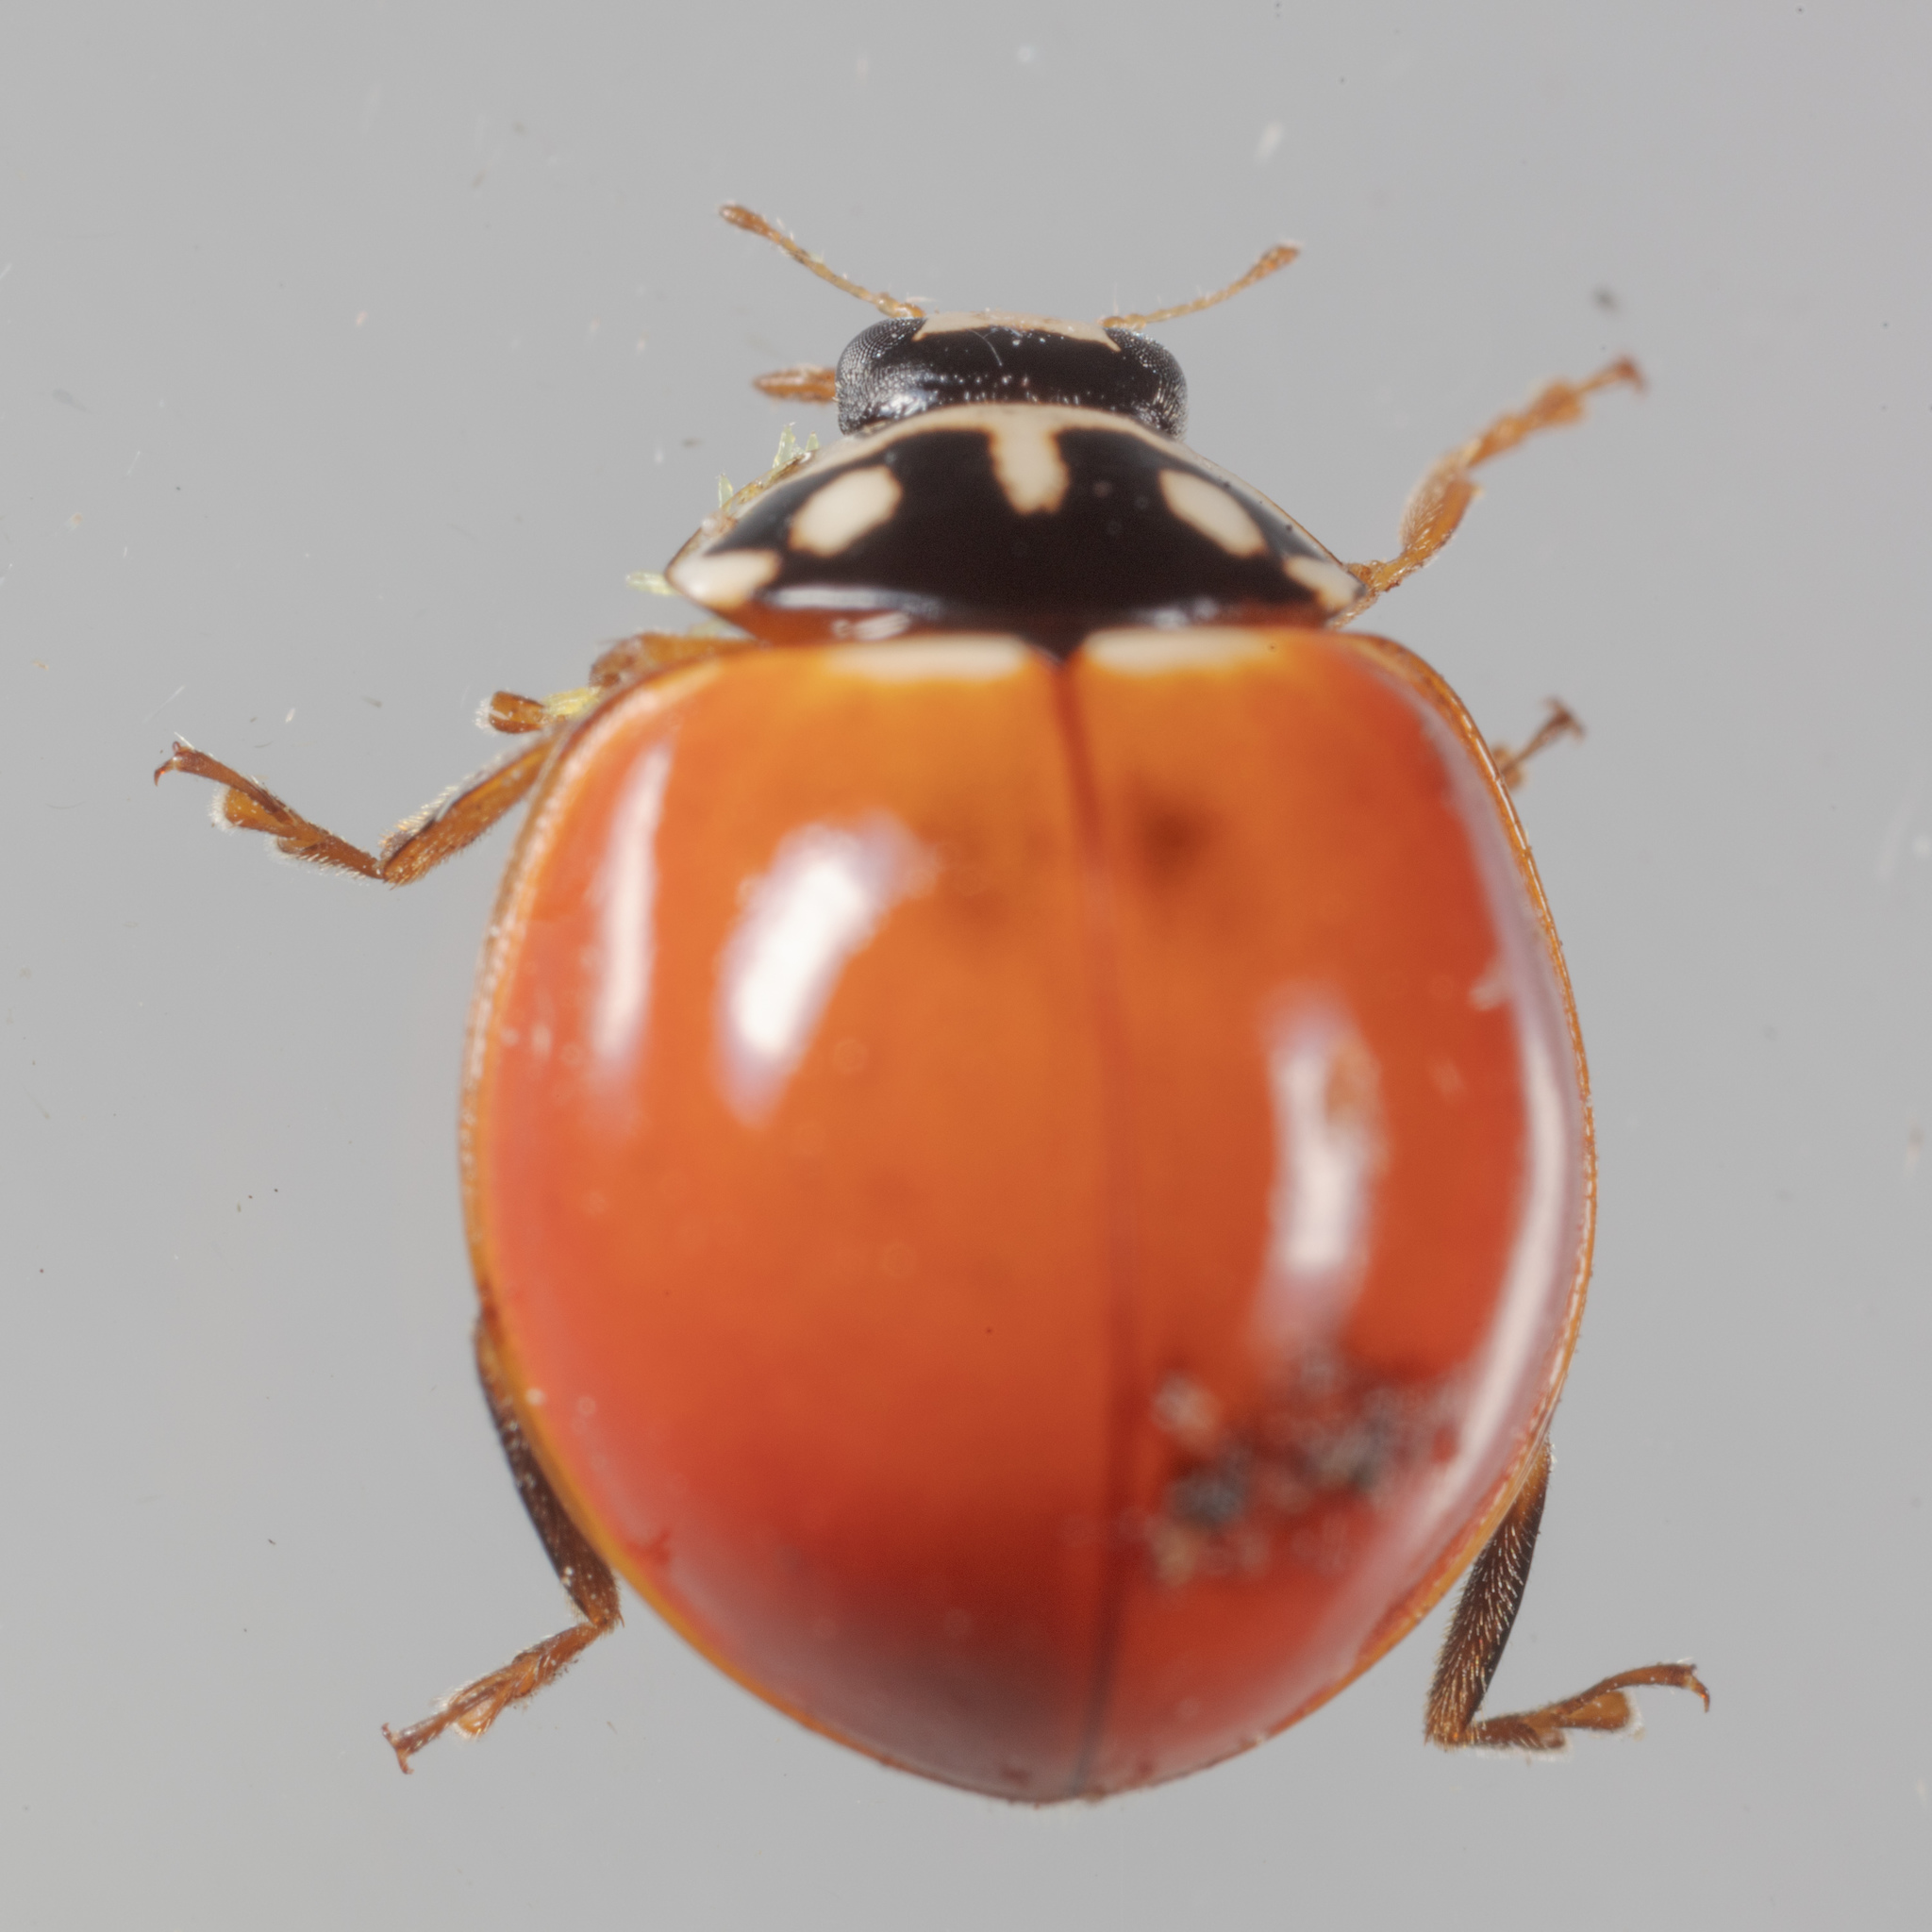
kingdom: Animalia
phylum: Arthropoda
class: Insecta
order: Coleoptera
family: Coccinellidae
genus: Cycloneda
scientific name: Cycloneda sanguinea
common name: Ladybird beetle
